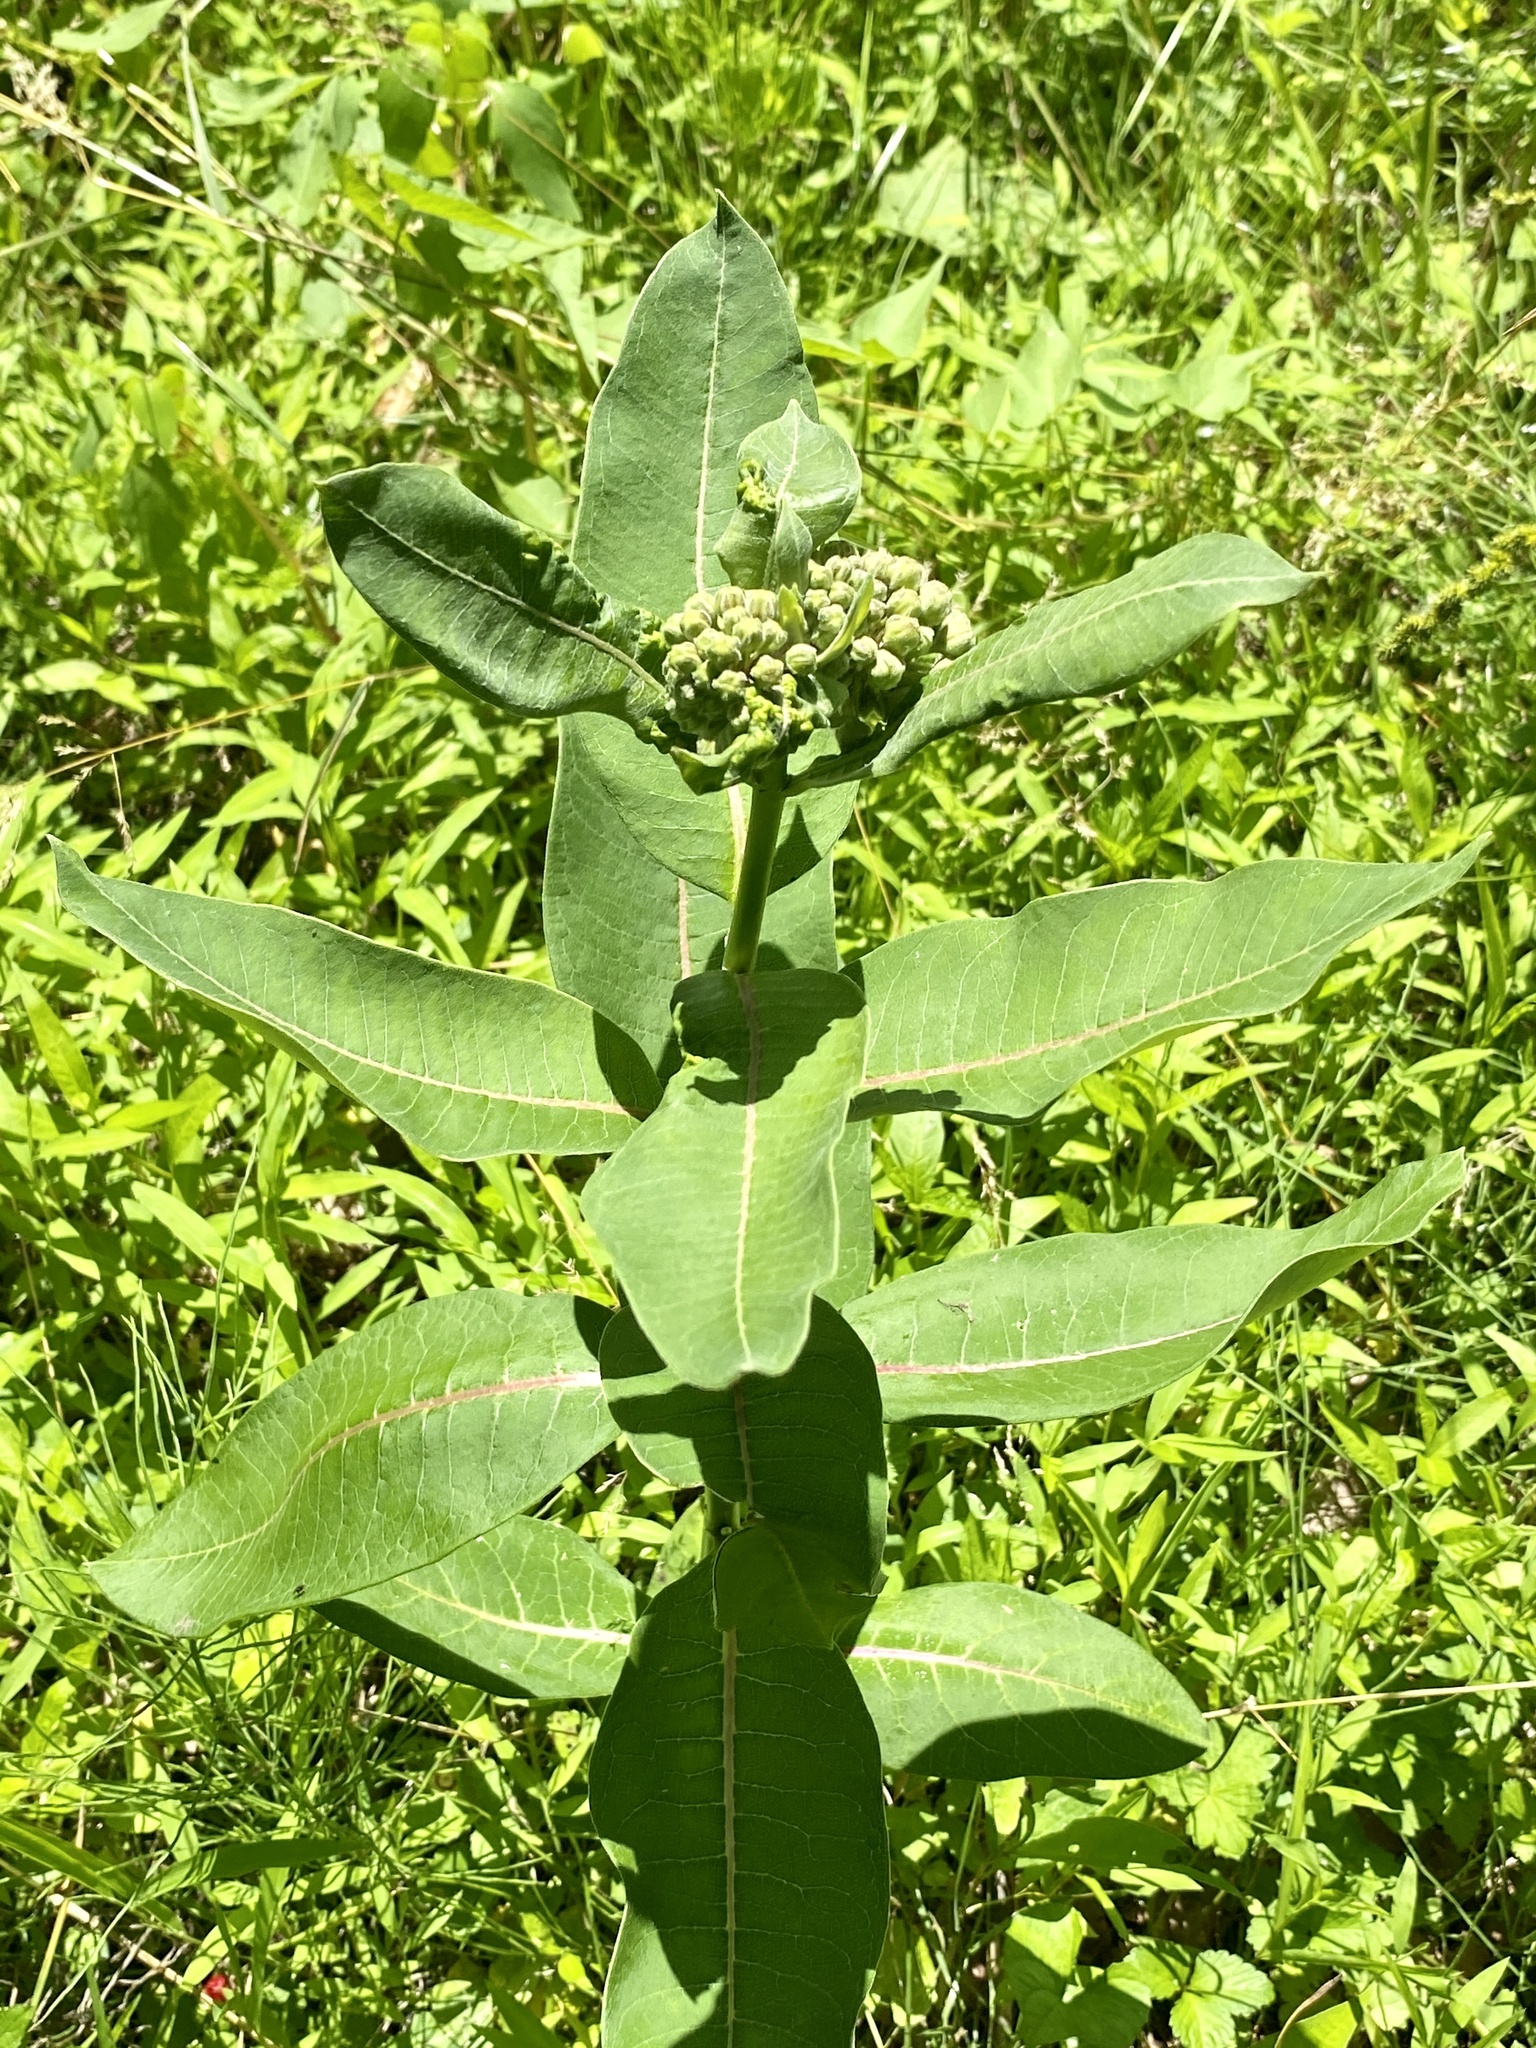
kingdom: Plantae
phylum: Tracheophyta
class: Magnoliopsida
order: Gentianales
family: Apocynaceae
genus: Asclepias
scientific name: Asclepias syriaca
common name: Common milkweed
